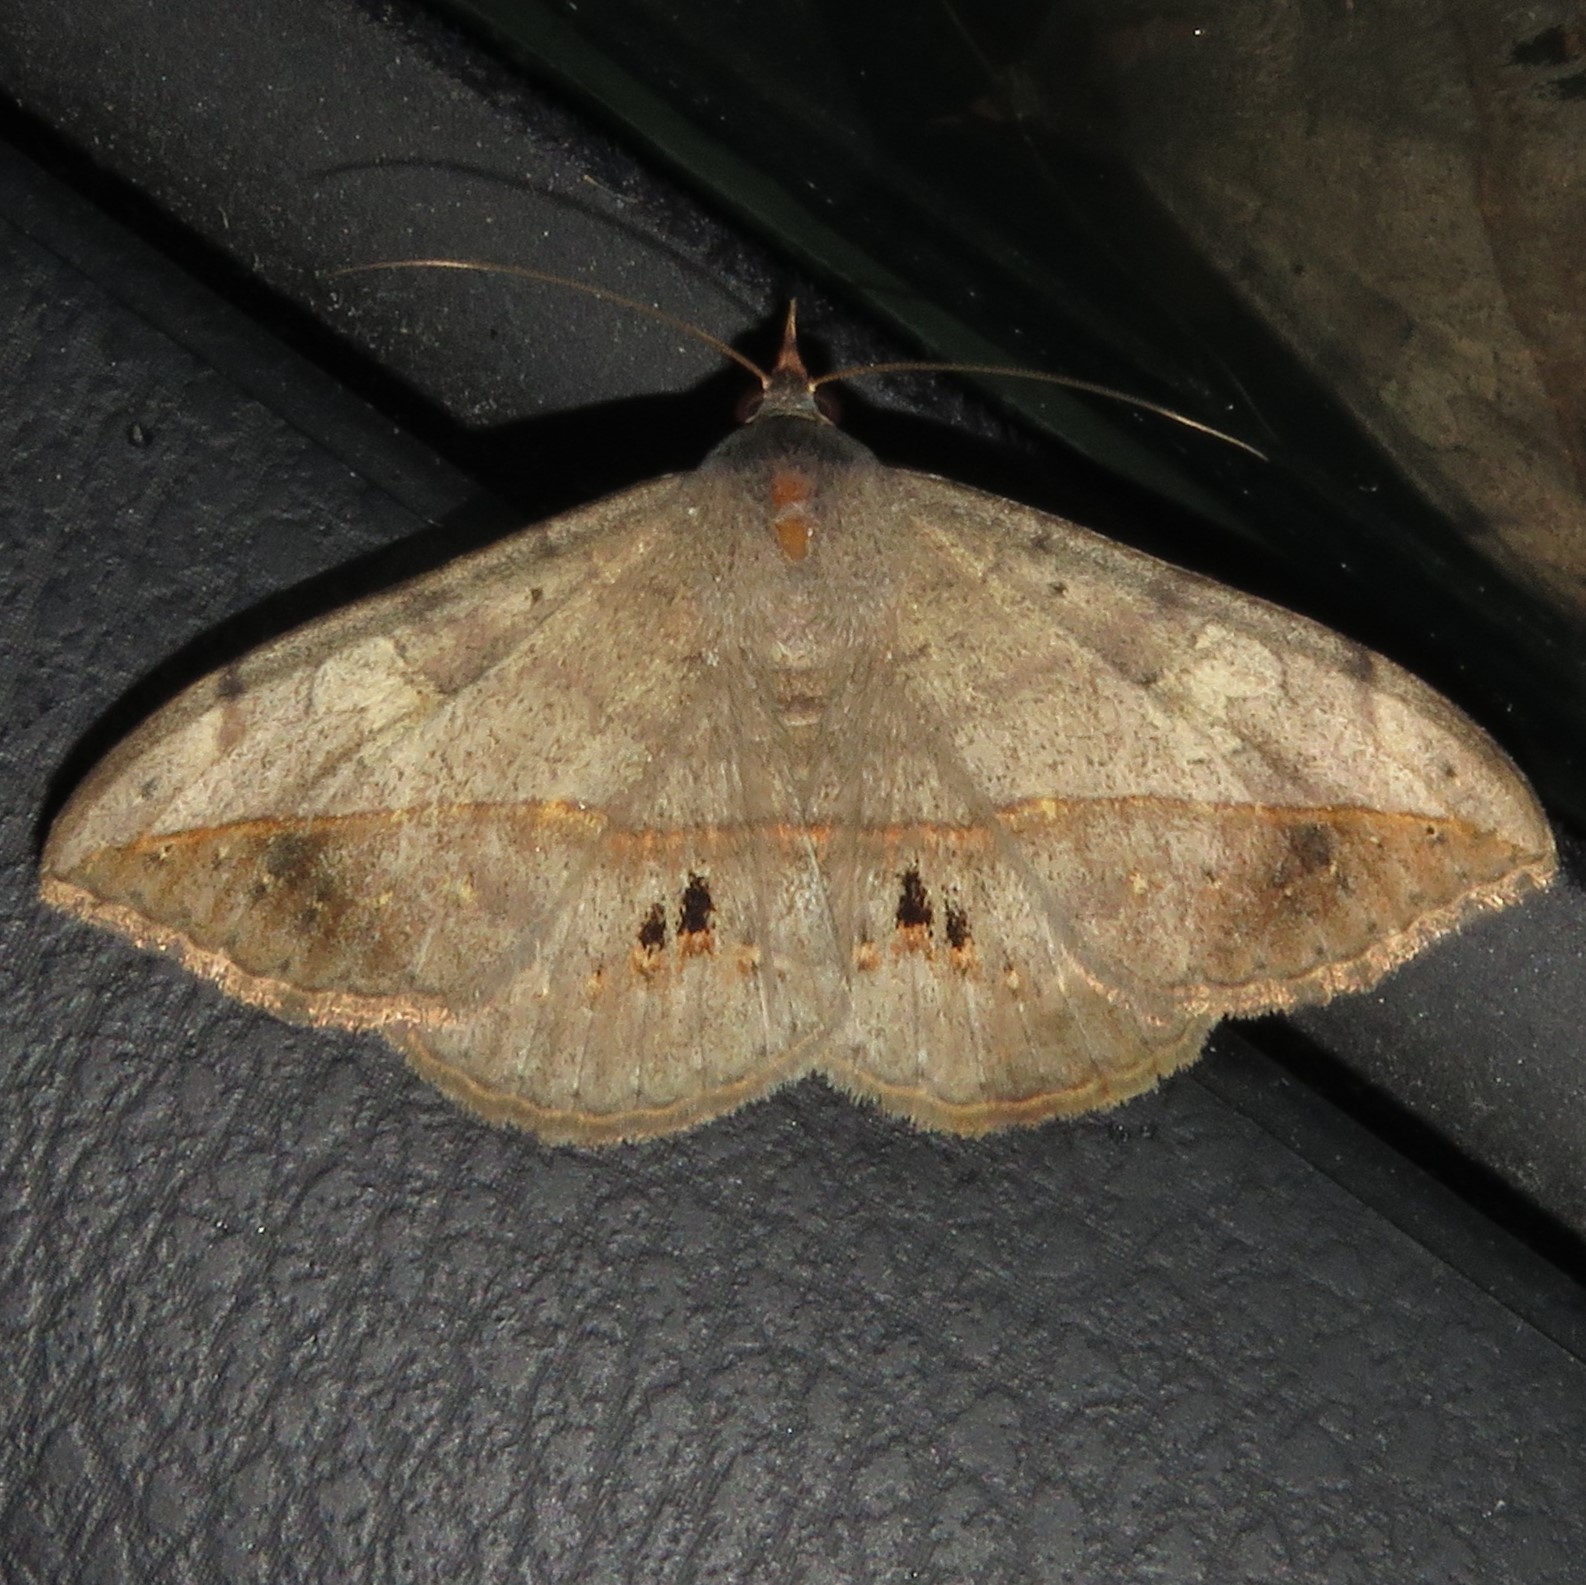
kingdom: Animalia
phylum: Arthropoda
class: Insecta
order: Lepidoptera
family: Erebidae
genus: Anticarsia
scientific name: Anticarsia gemmatalis
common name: Cutworm moth
